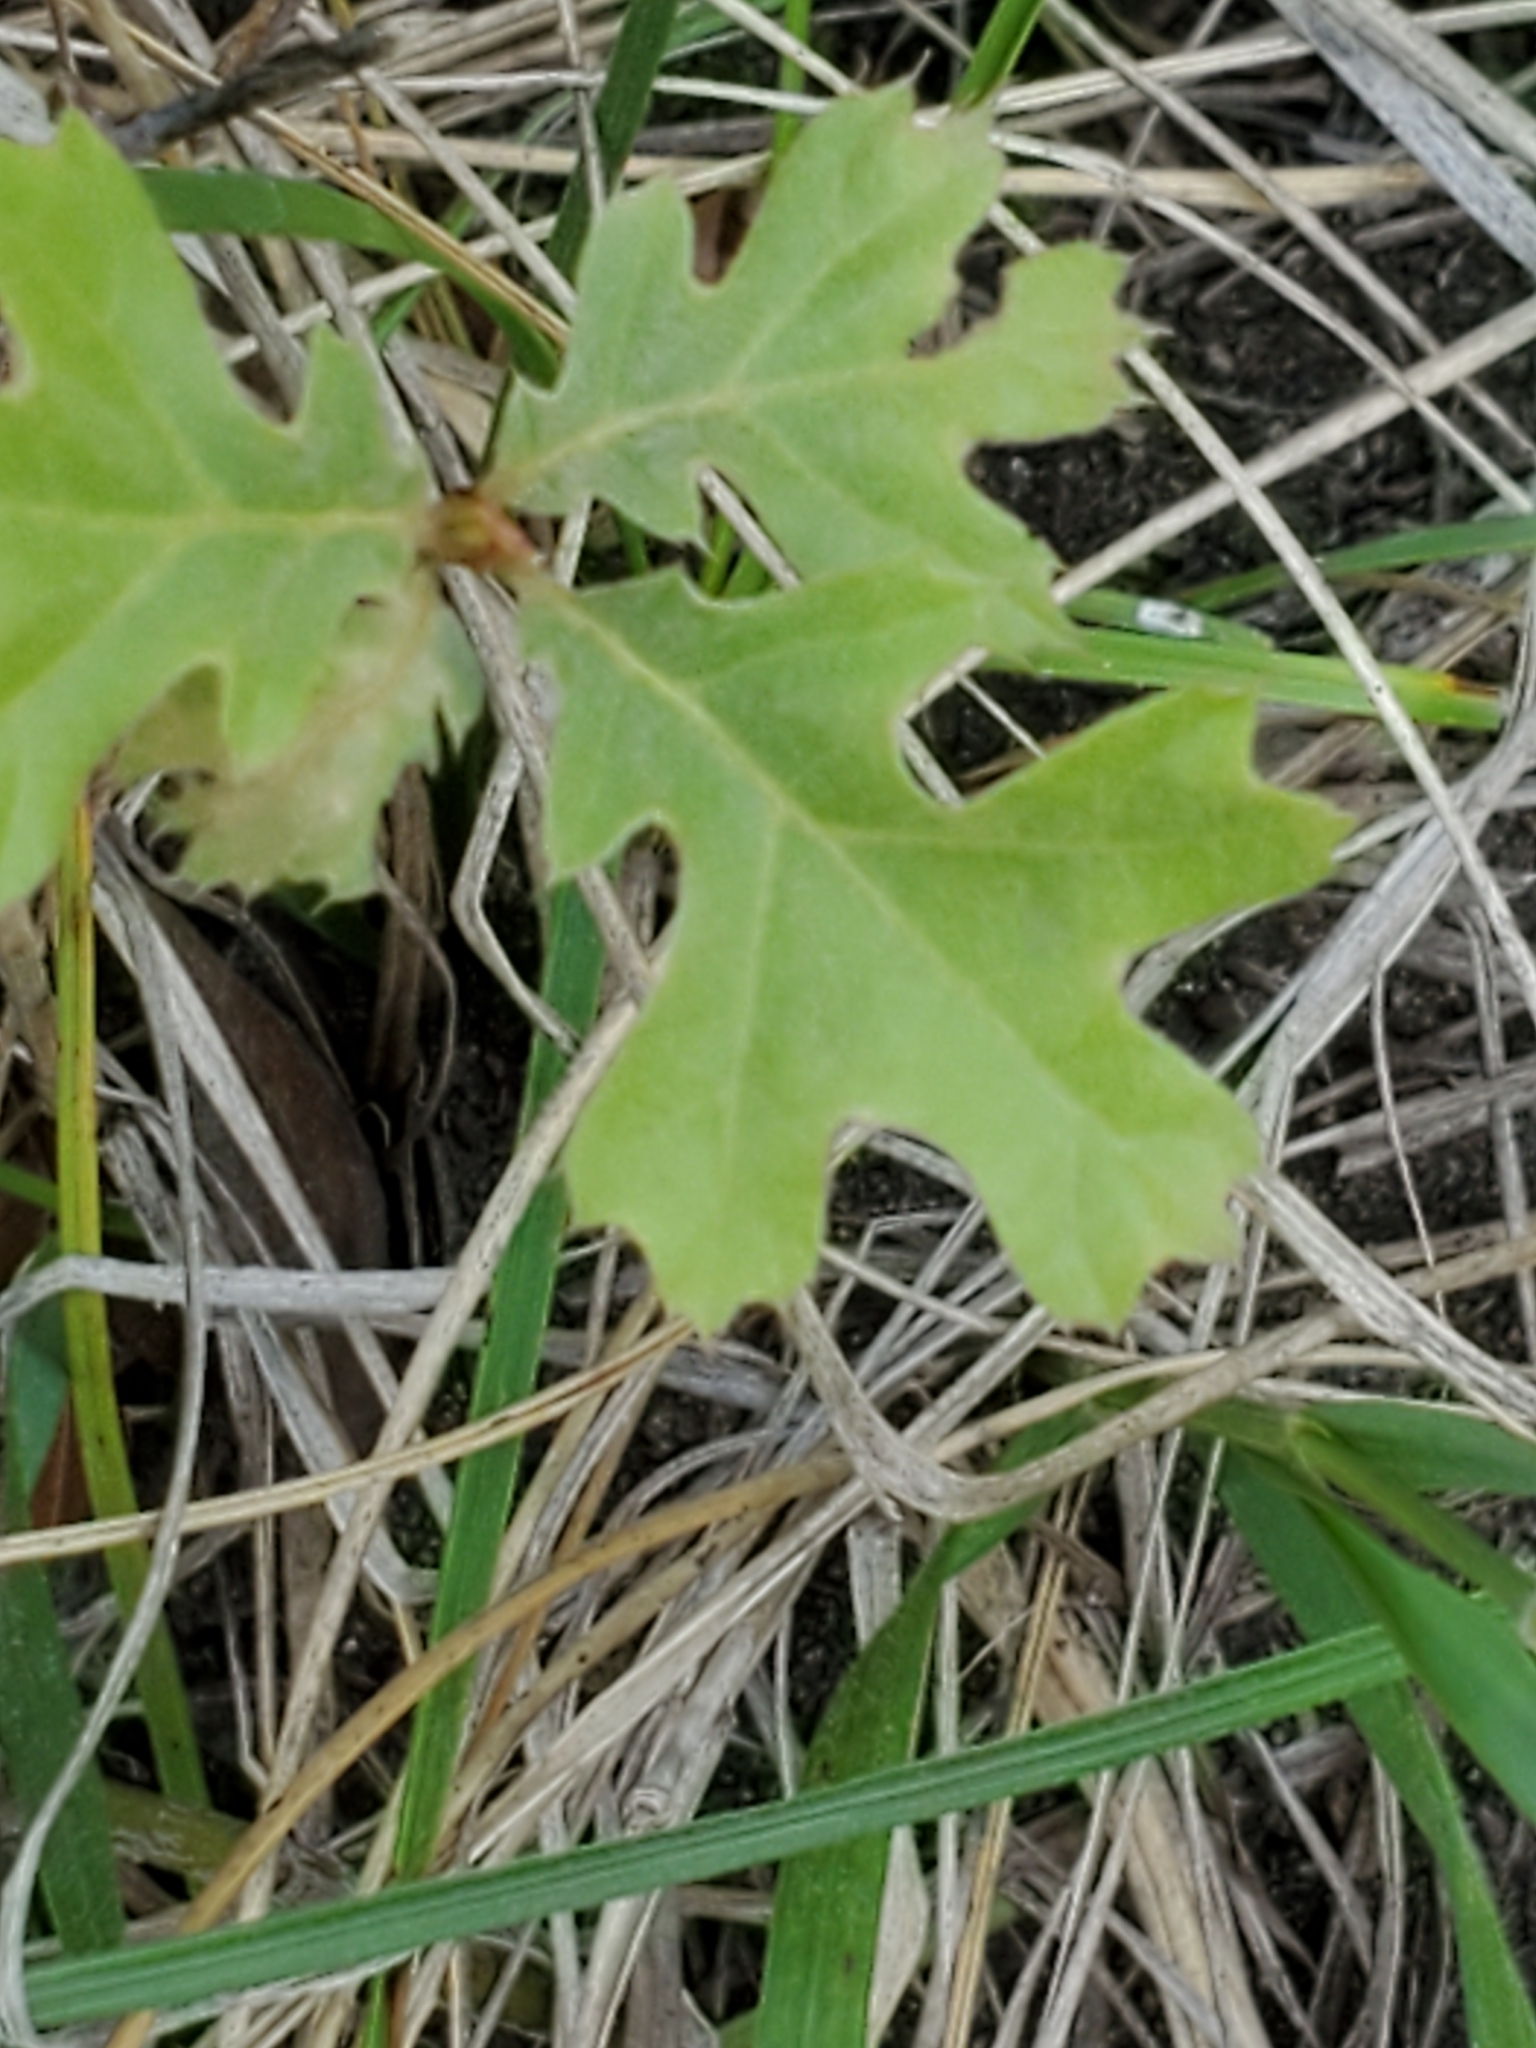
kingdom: Plantae
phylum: Tracheophyta
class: Magnoliopsida
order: Fagales
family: Fagaceae
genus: Quercus
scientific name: Quercus buckleyi
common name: Buckley oak
